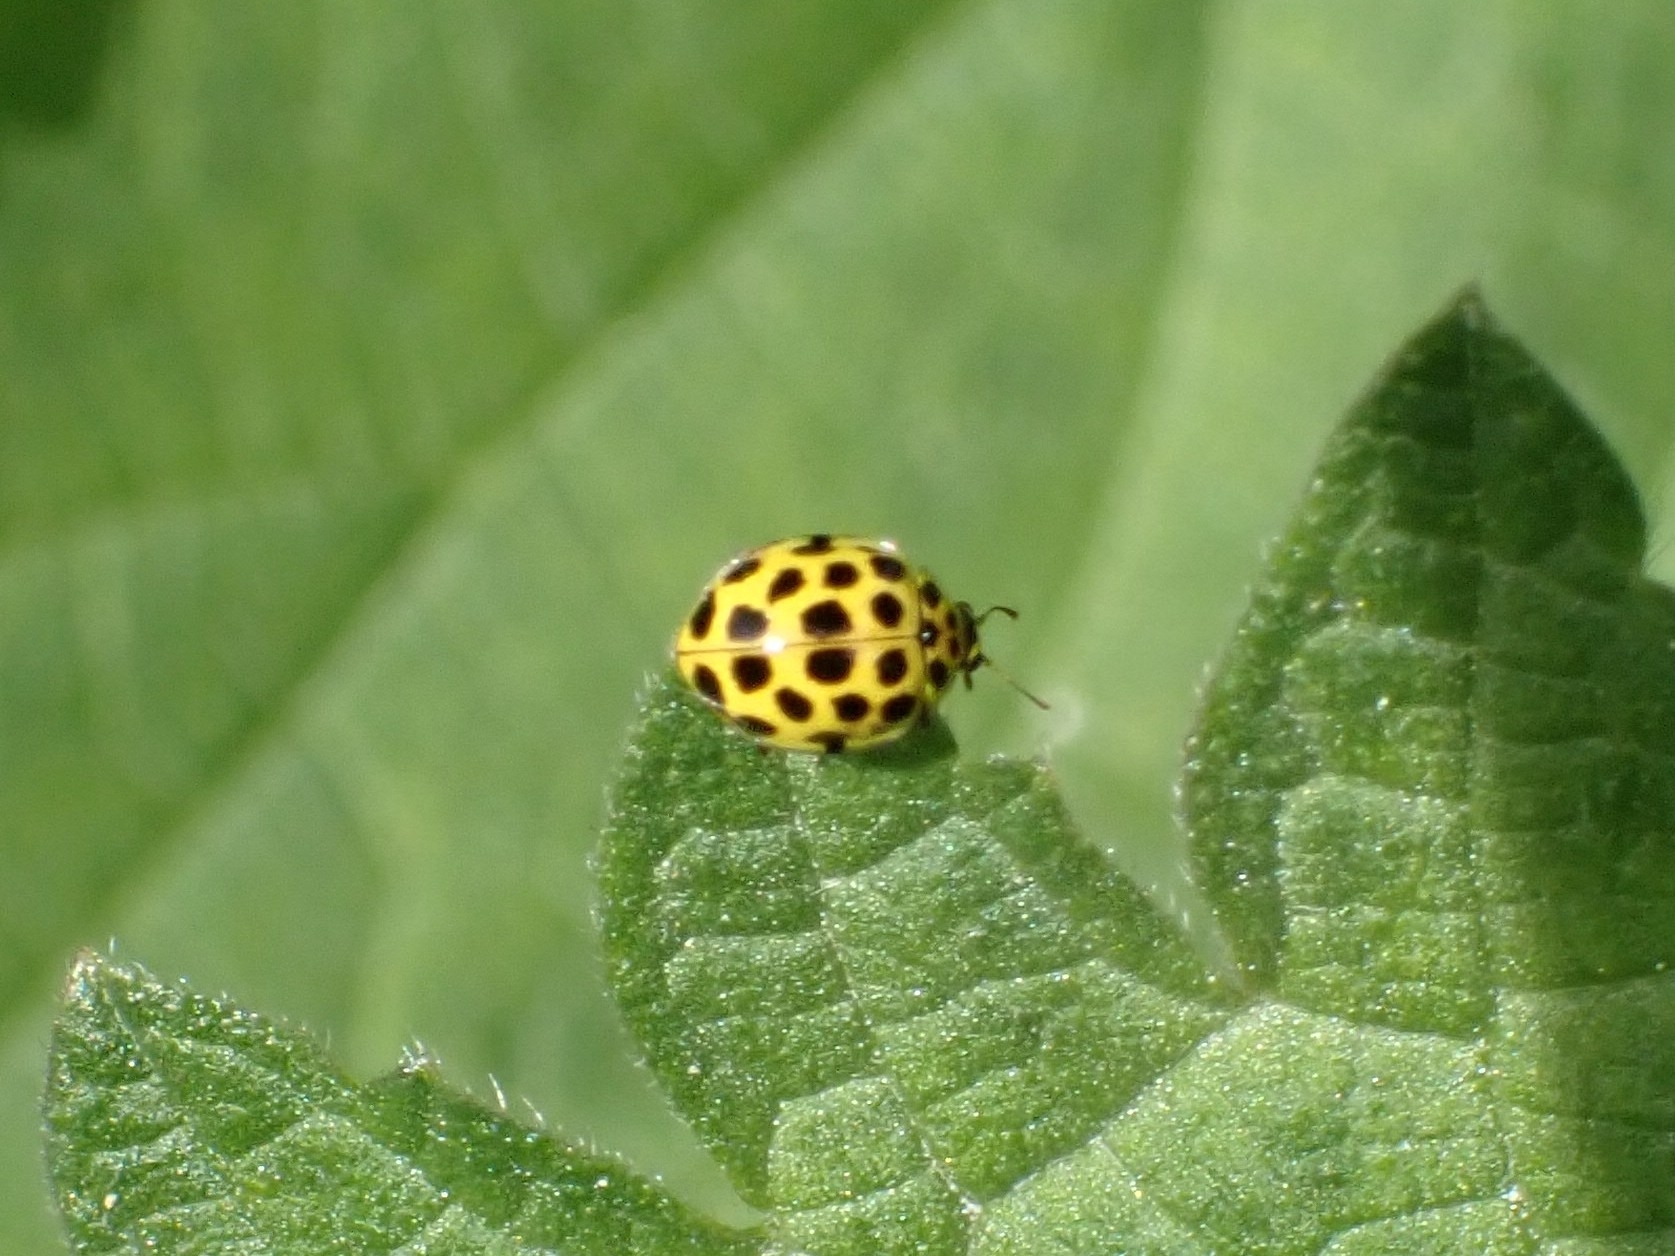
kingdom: Animalia
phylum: Arthropoda
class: Insecta
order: Coleoptera
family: Coccinellidae
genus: Psyllobora
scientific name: Psyllobora vigintiduopunctata
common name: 22-spot ladybird
